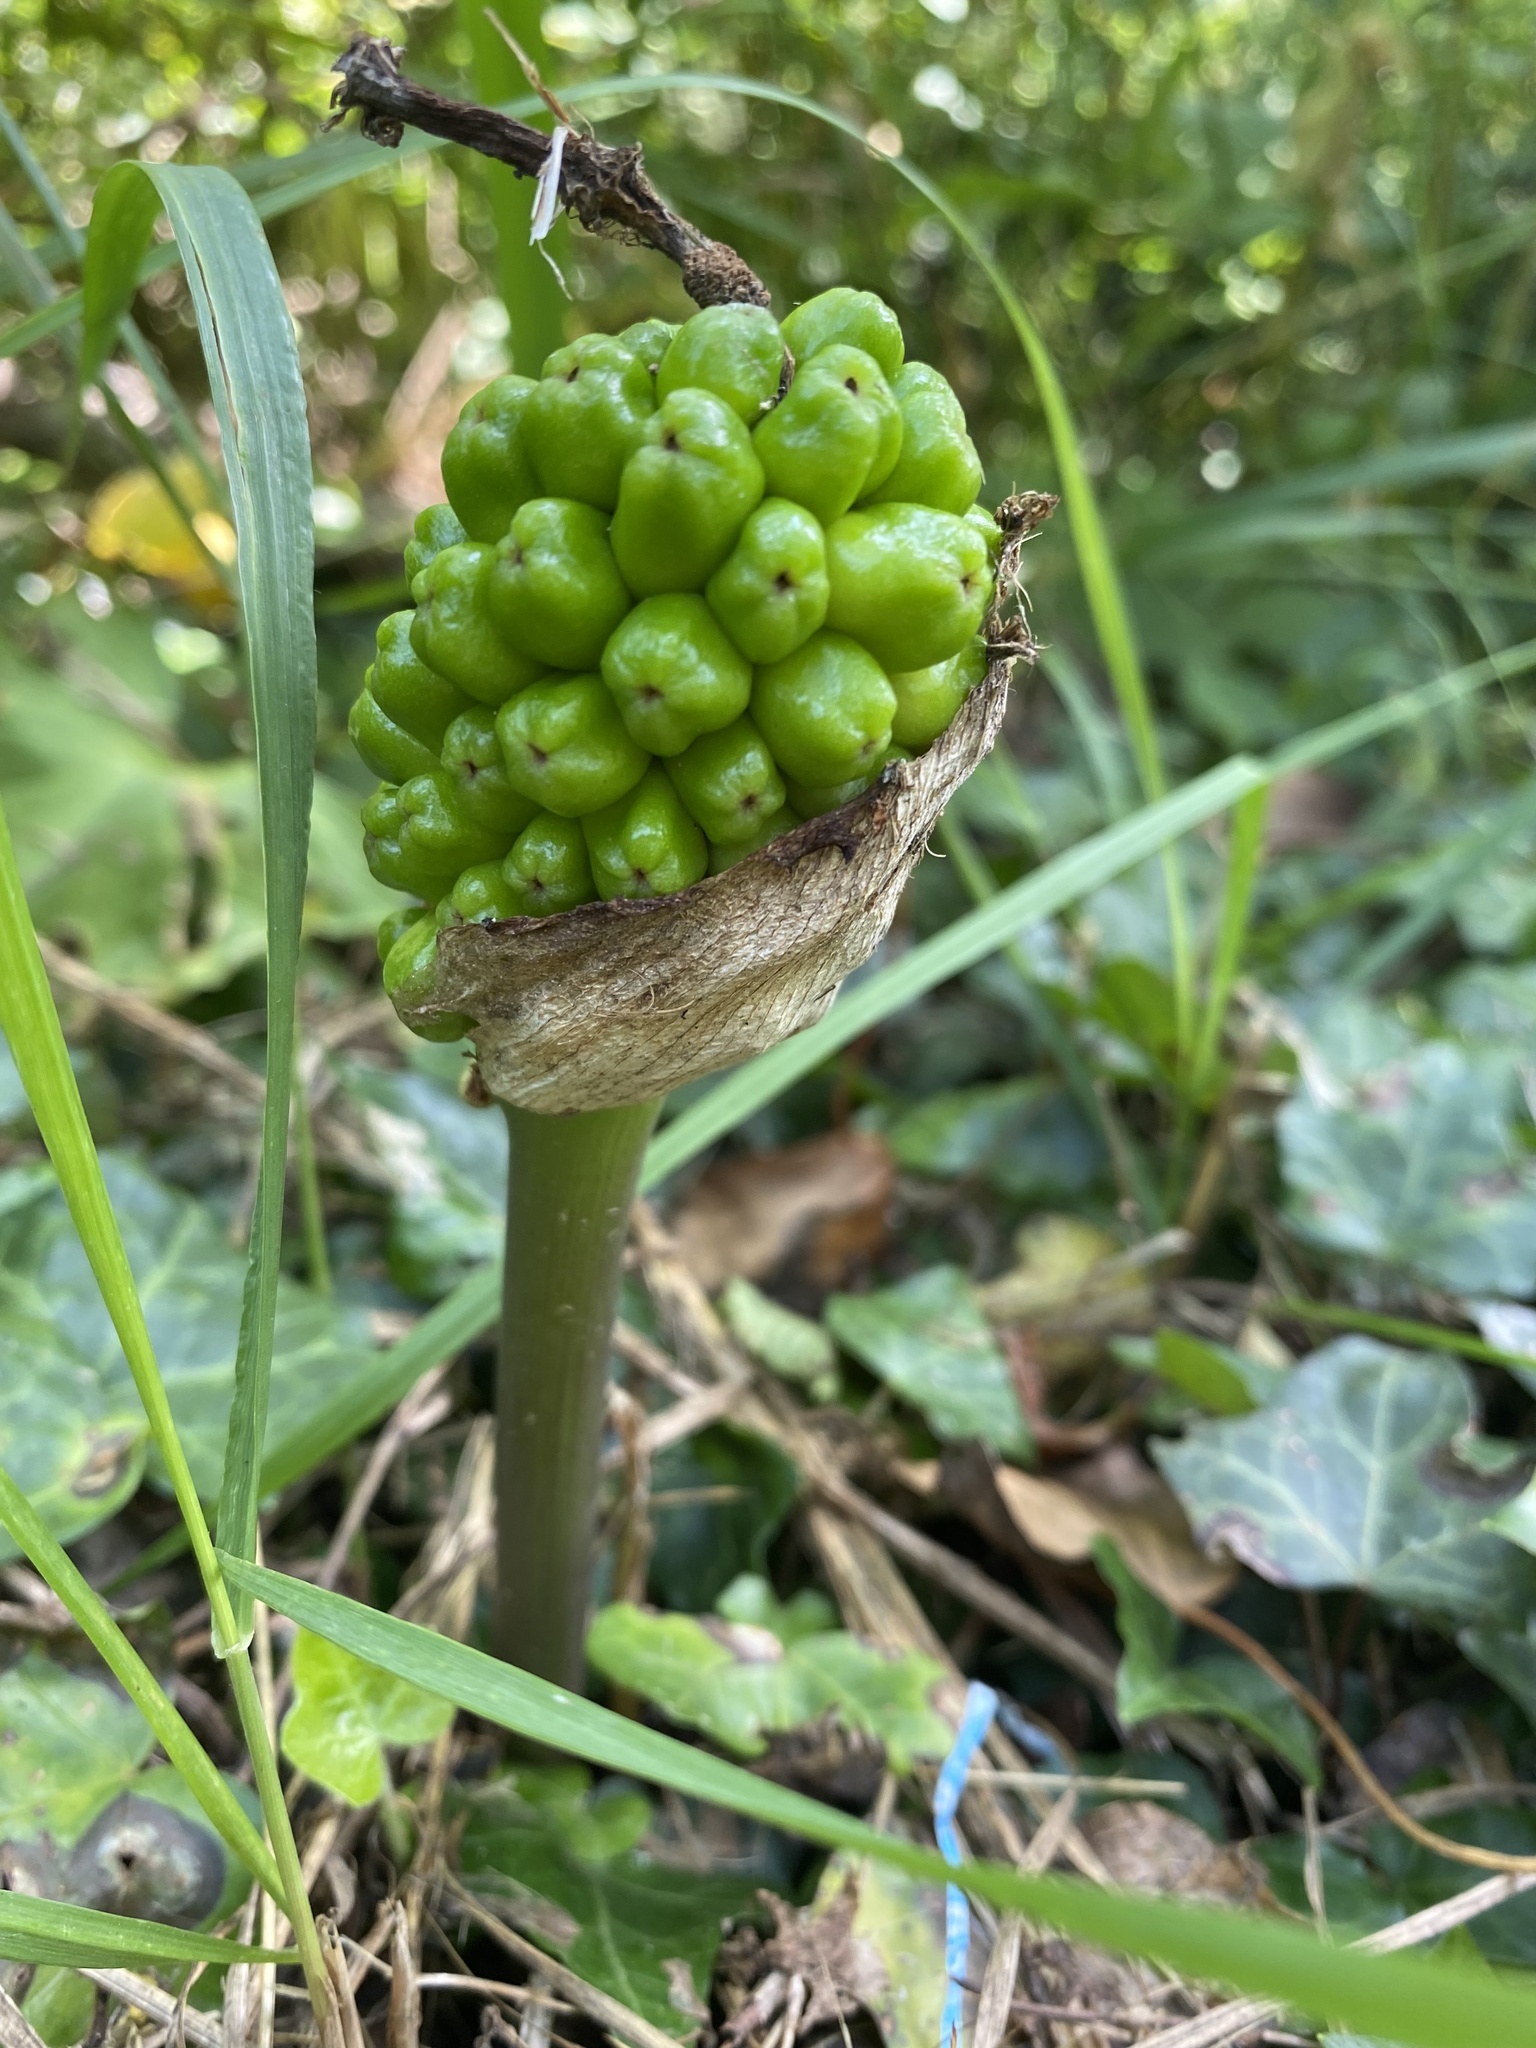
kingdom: Plantae
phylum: Tracheophyta
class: Liliopsida
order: Alismatales
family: Araceae
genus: Arum
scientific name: Arum orientale
